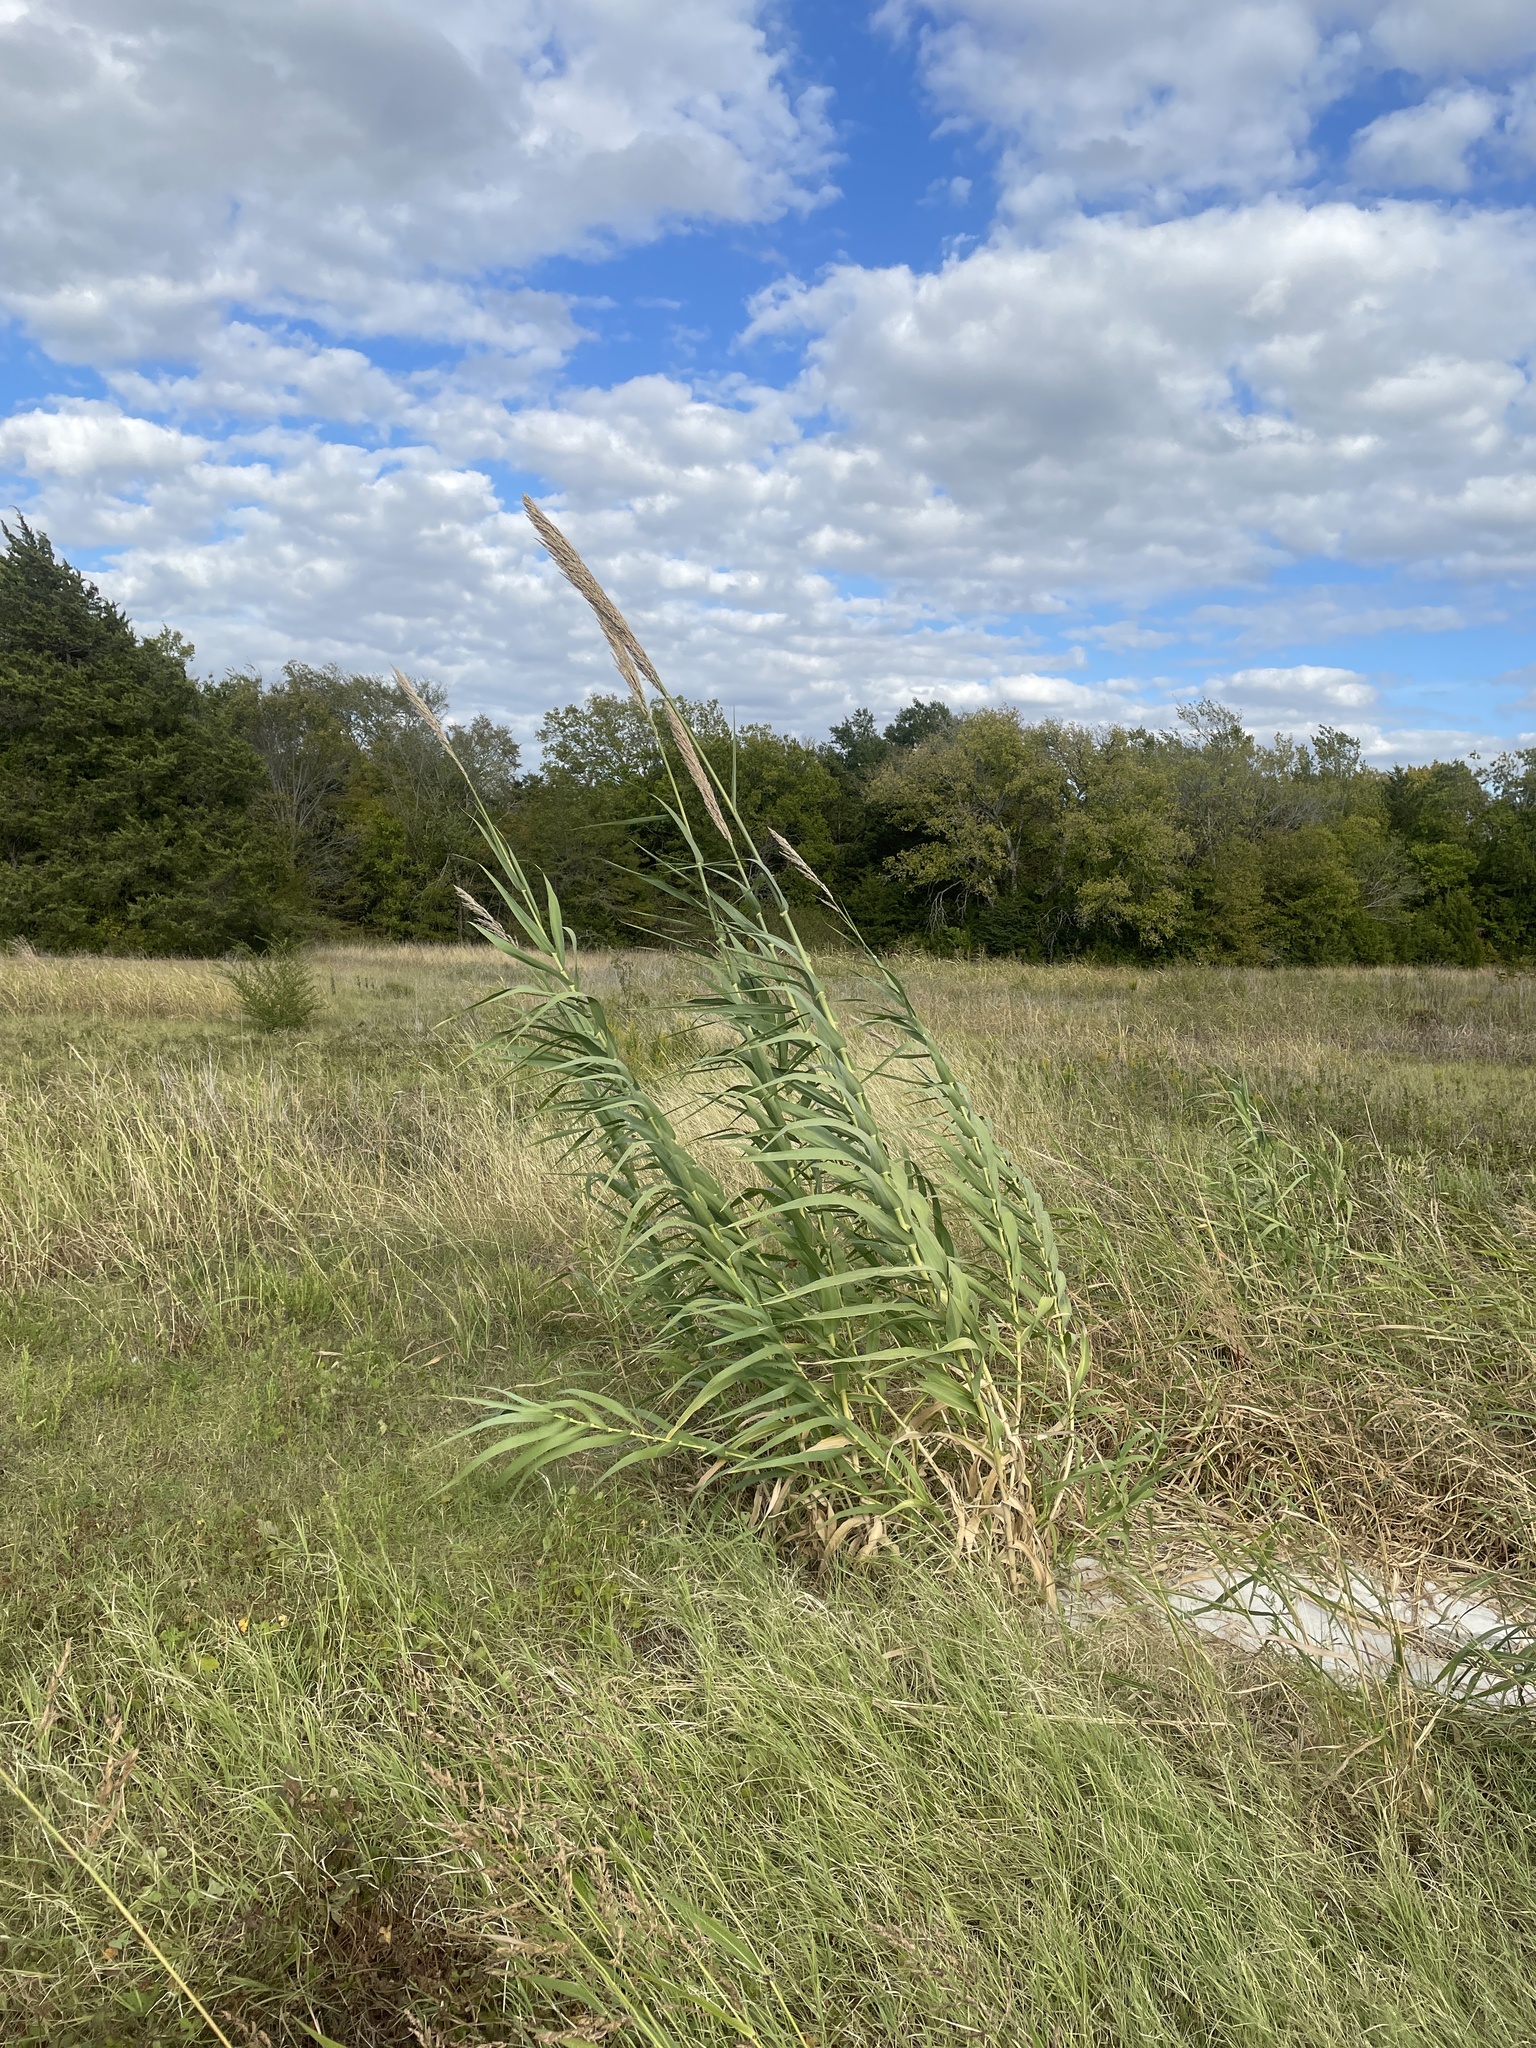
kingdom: Plantae
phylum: Tracheophyta
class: Liliopsida
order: Poales
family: Poaceae
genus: Arundo
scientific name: Arundo donax
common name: Giant reed
